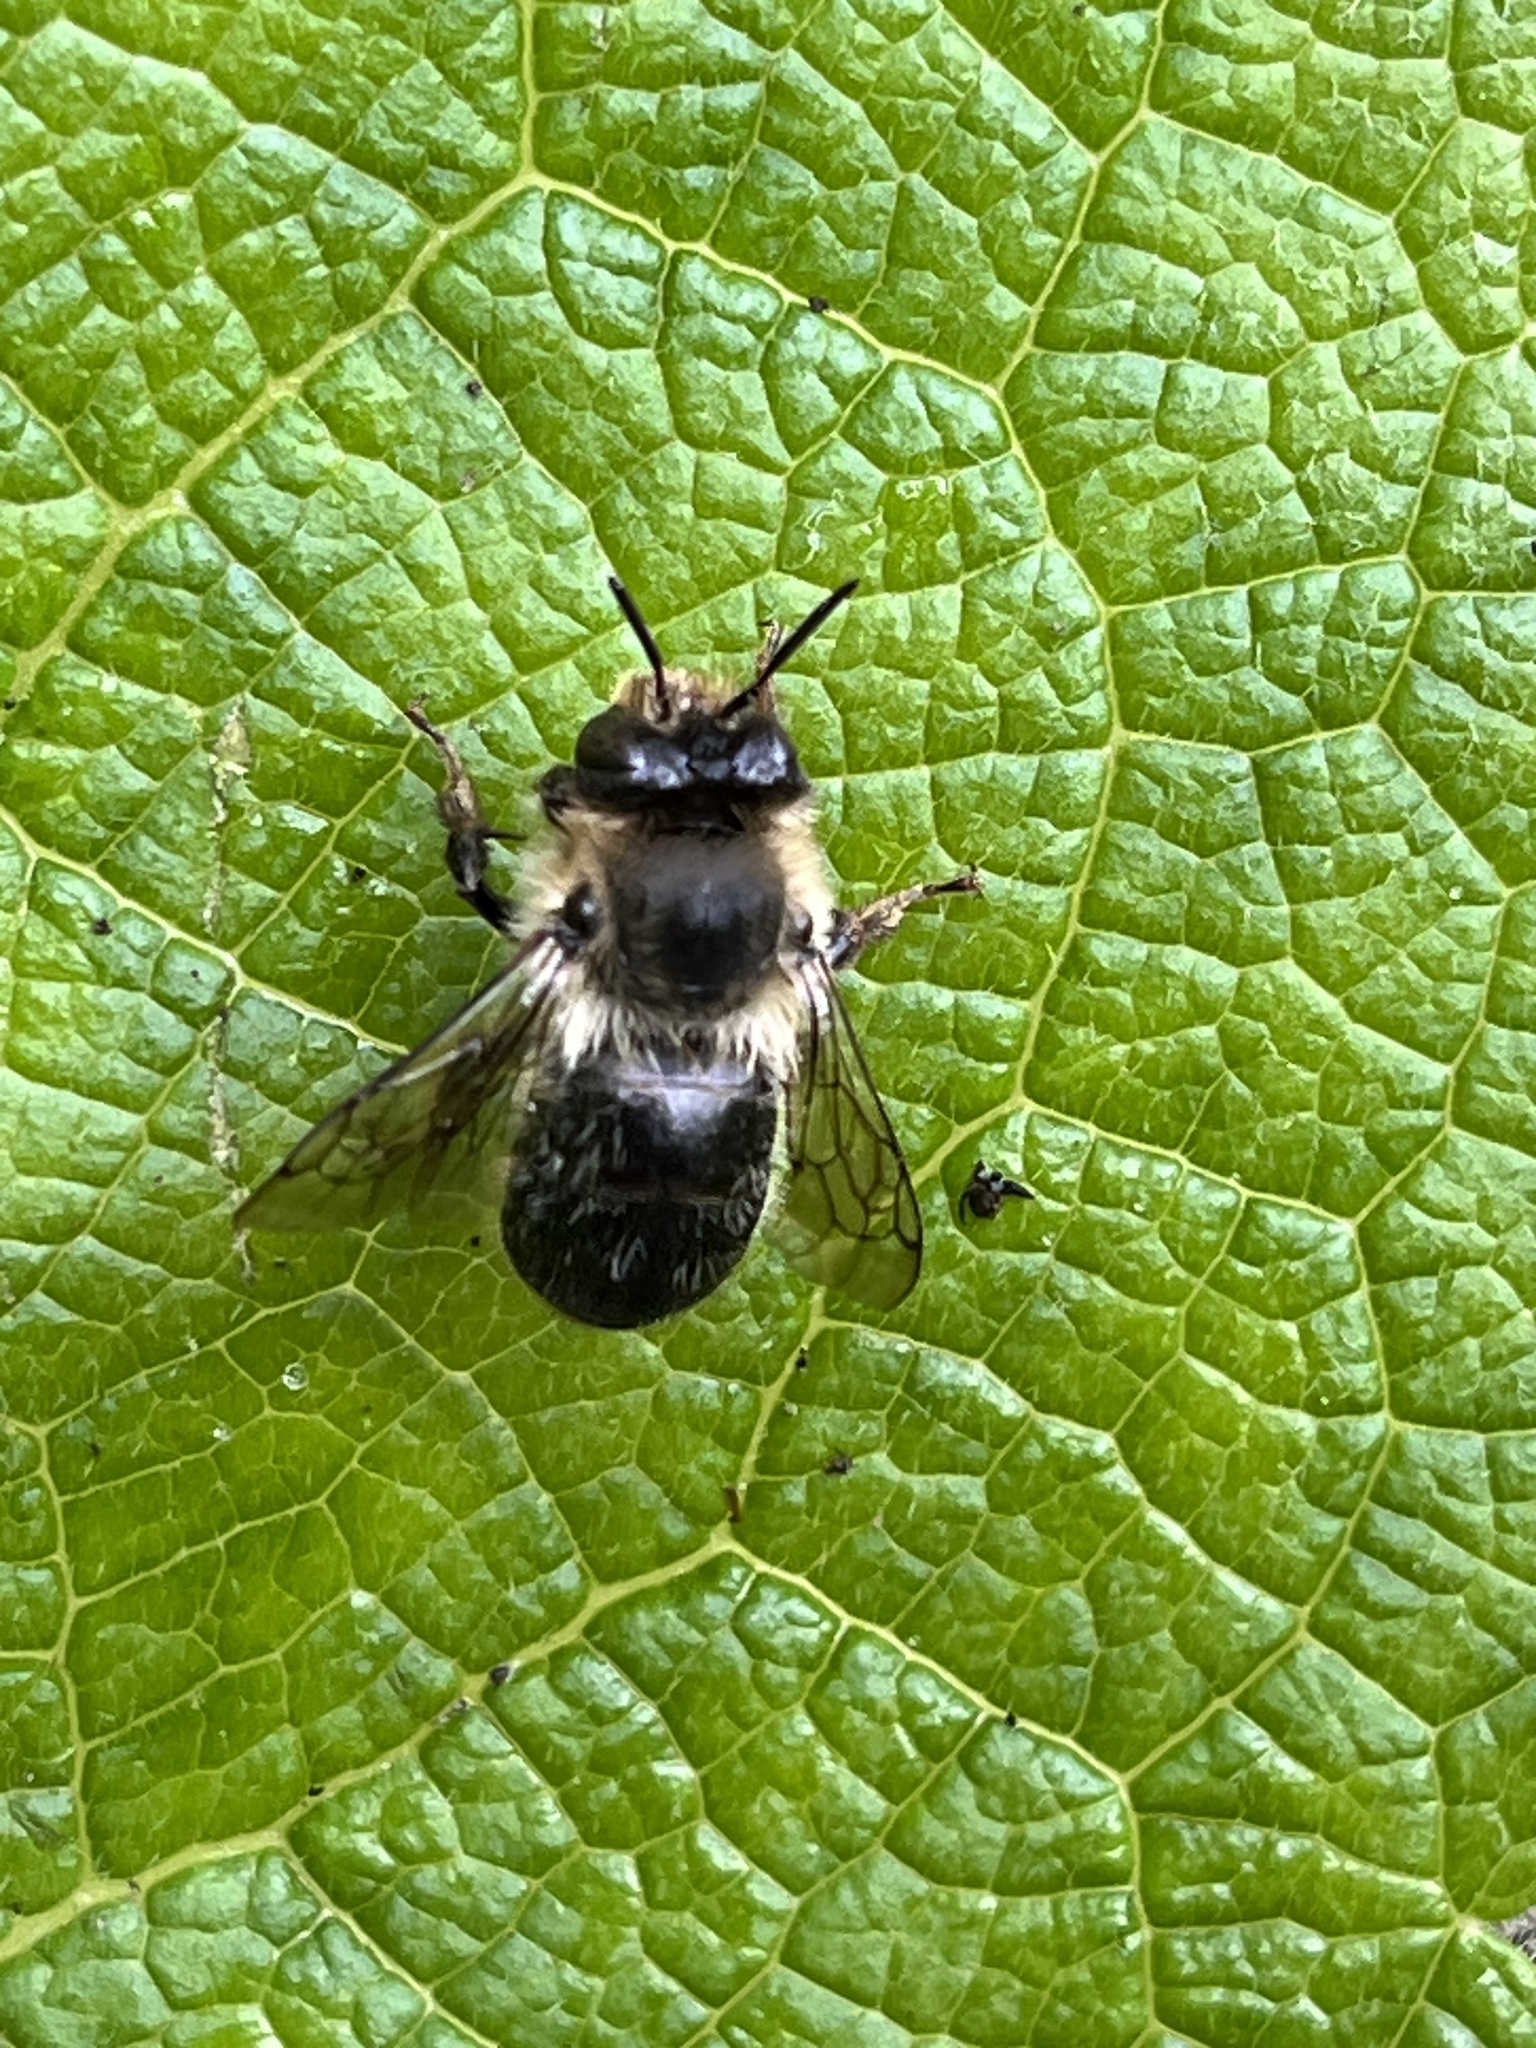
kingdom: Animalia
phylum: Arthropoda
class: Insecta
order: Hymenoptera
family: Apidae
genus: Anthophora
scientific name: Anthophora furcata
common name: Fork-tailed flower bee
